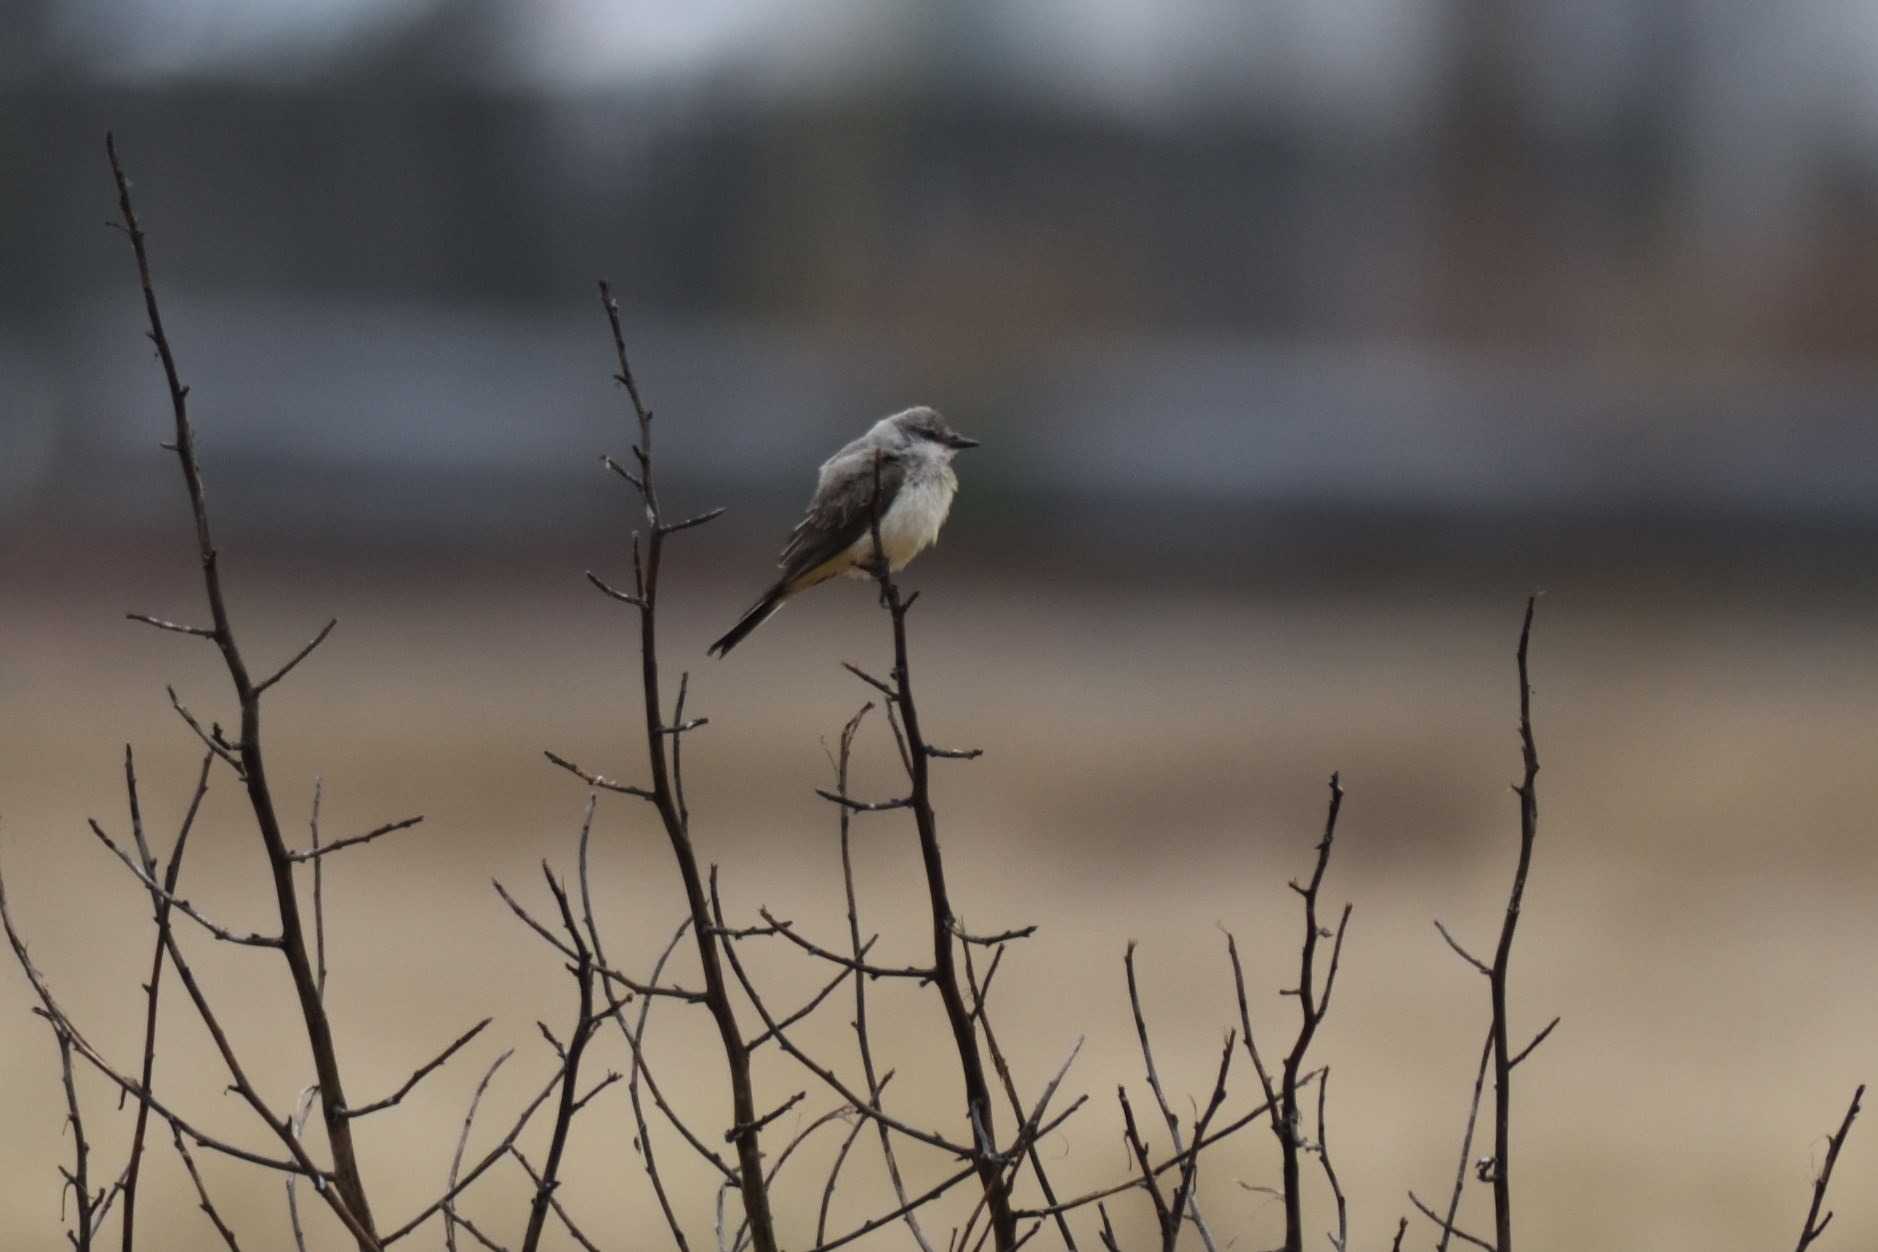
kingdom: Animalia
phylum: Chordata
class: Aves
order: Passeriformes
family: Tyrannidae
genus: Tyrannus
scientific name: Tyrannus verticalis
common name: Western kingbird
